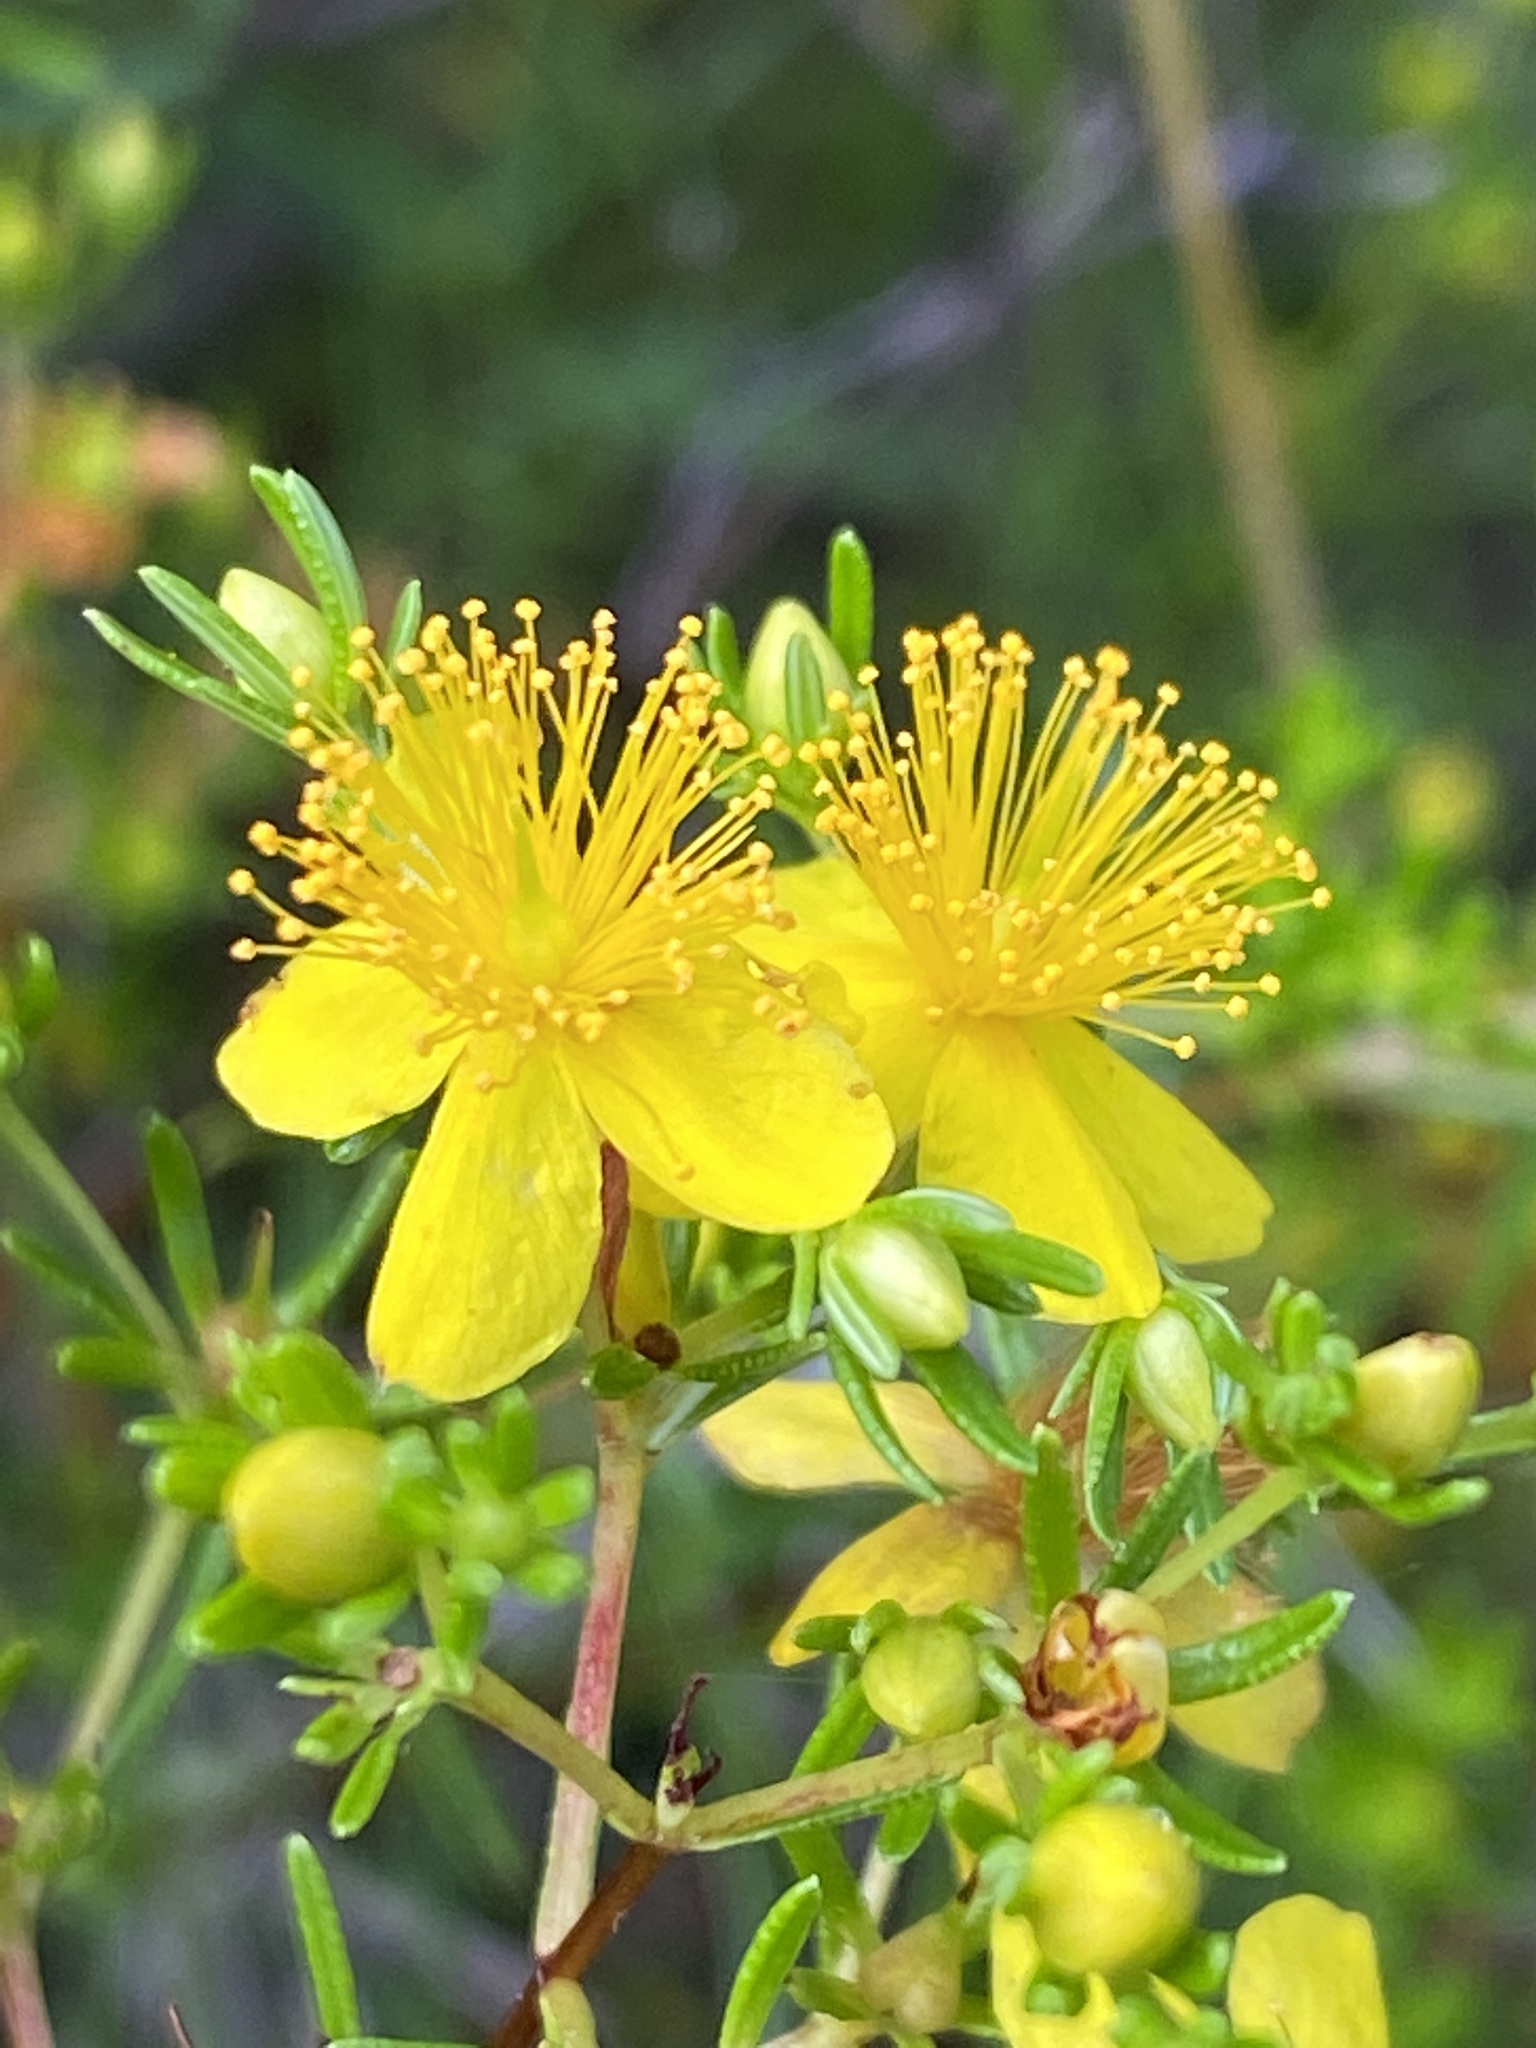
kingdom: Plantae
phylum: Tracheophyta
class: Magnoliopsida
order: Malpighiales
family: Hypericaceae
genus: Hypericum
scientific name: Hypericum lloydii
